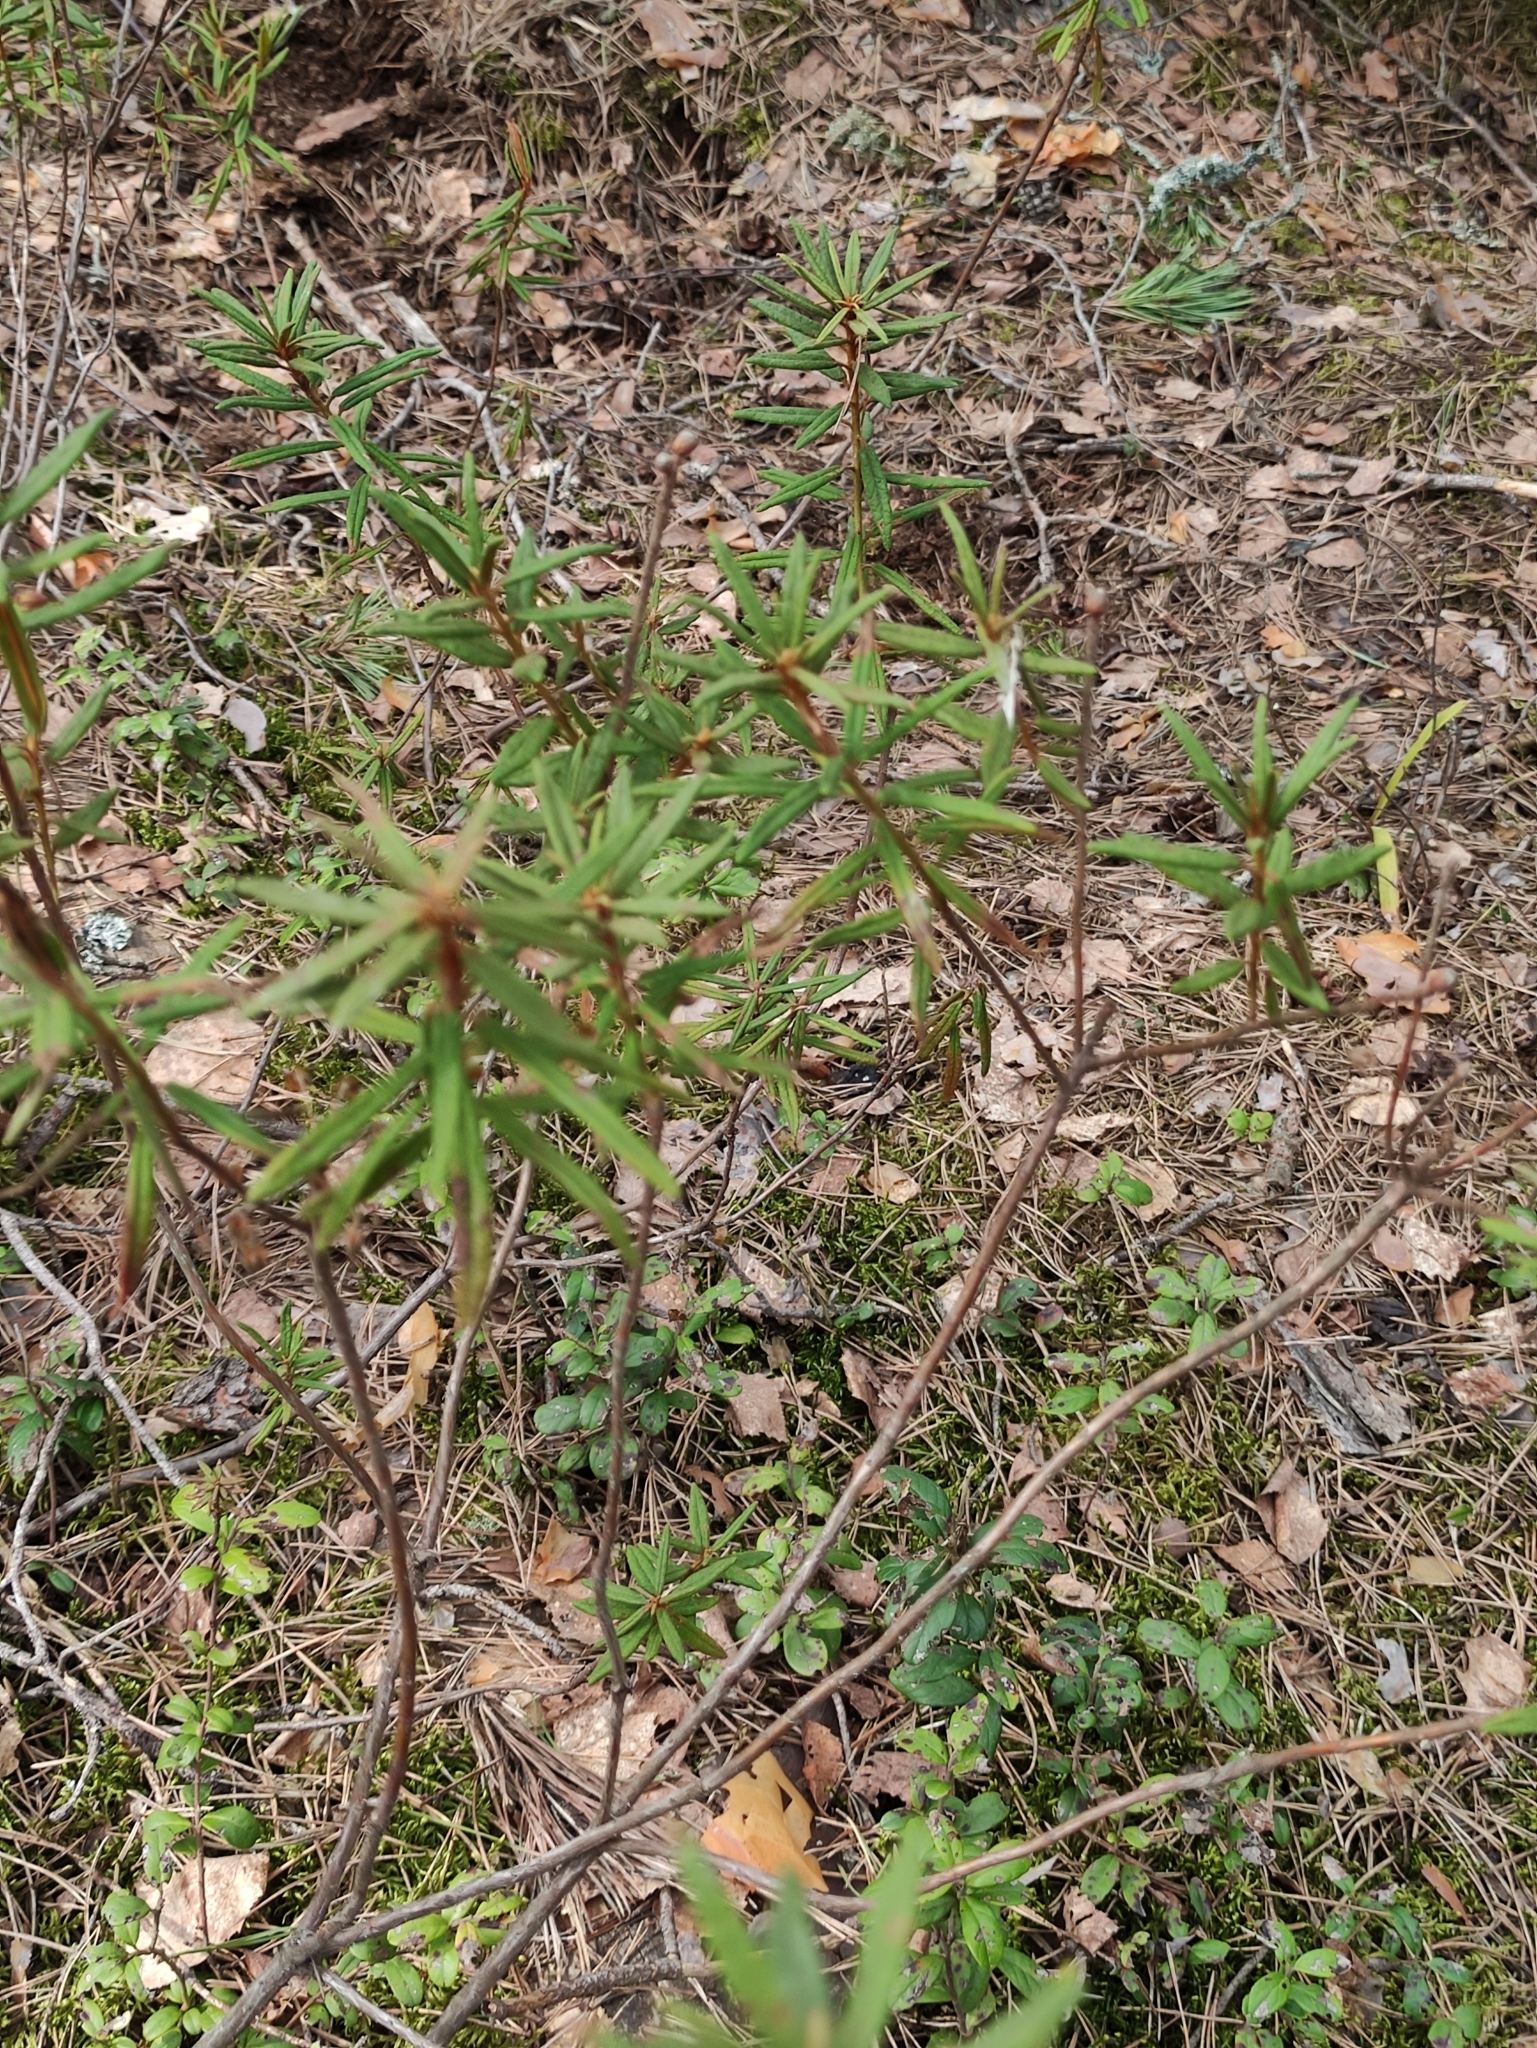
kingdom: Plantae
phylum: Tracheophyta
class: Magnoliopsida
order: Ericales
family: Ericaceae
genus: Rhododendron
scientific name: Rhododendron tomentosum
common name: Marsh labrador tea
